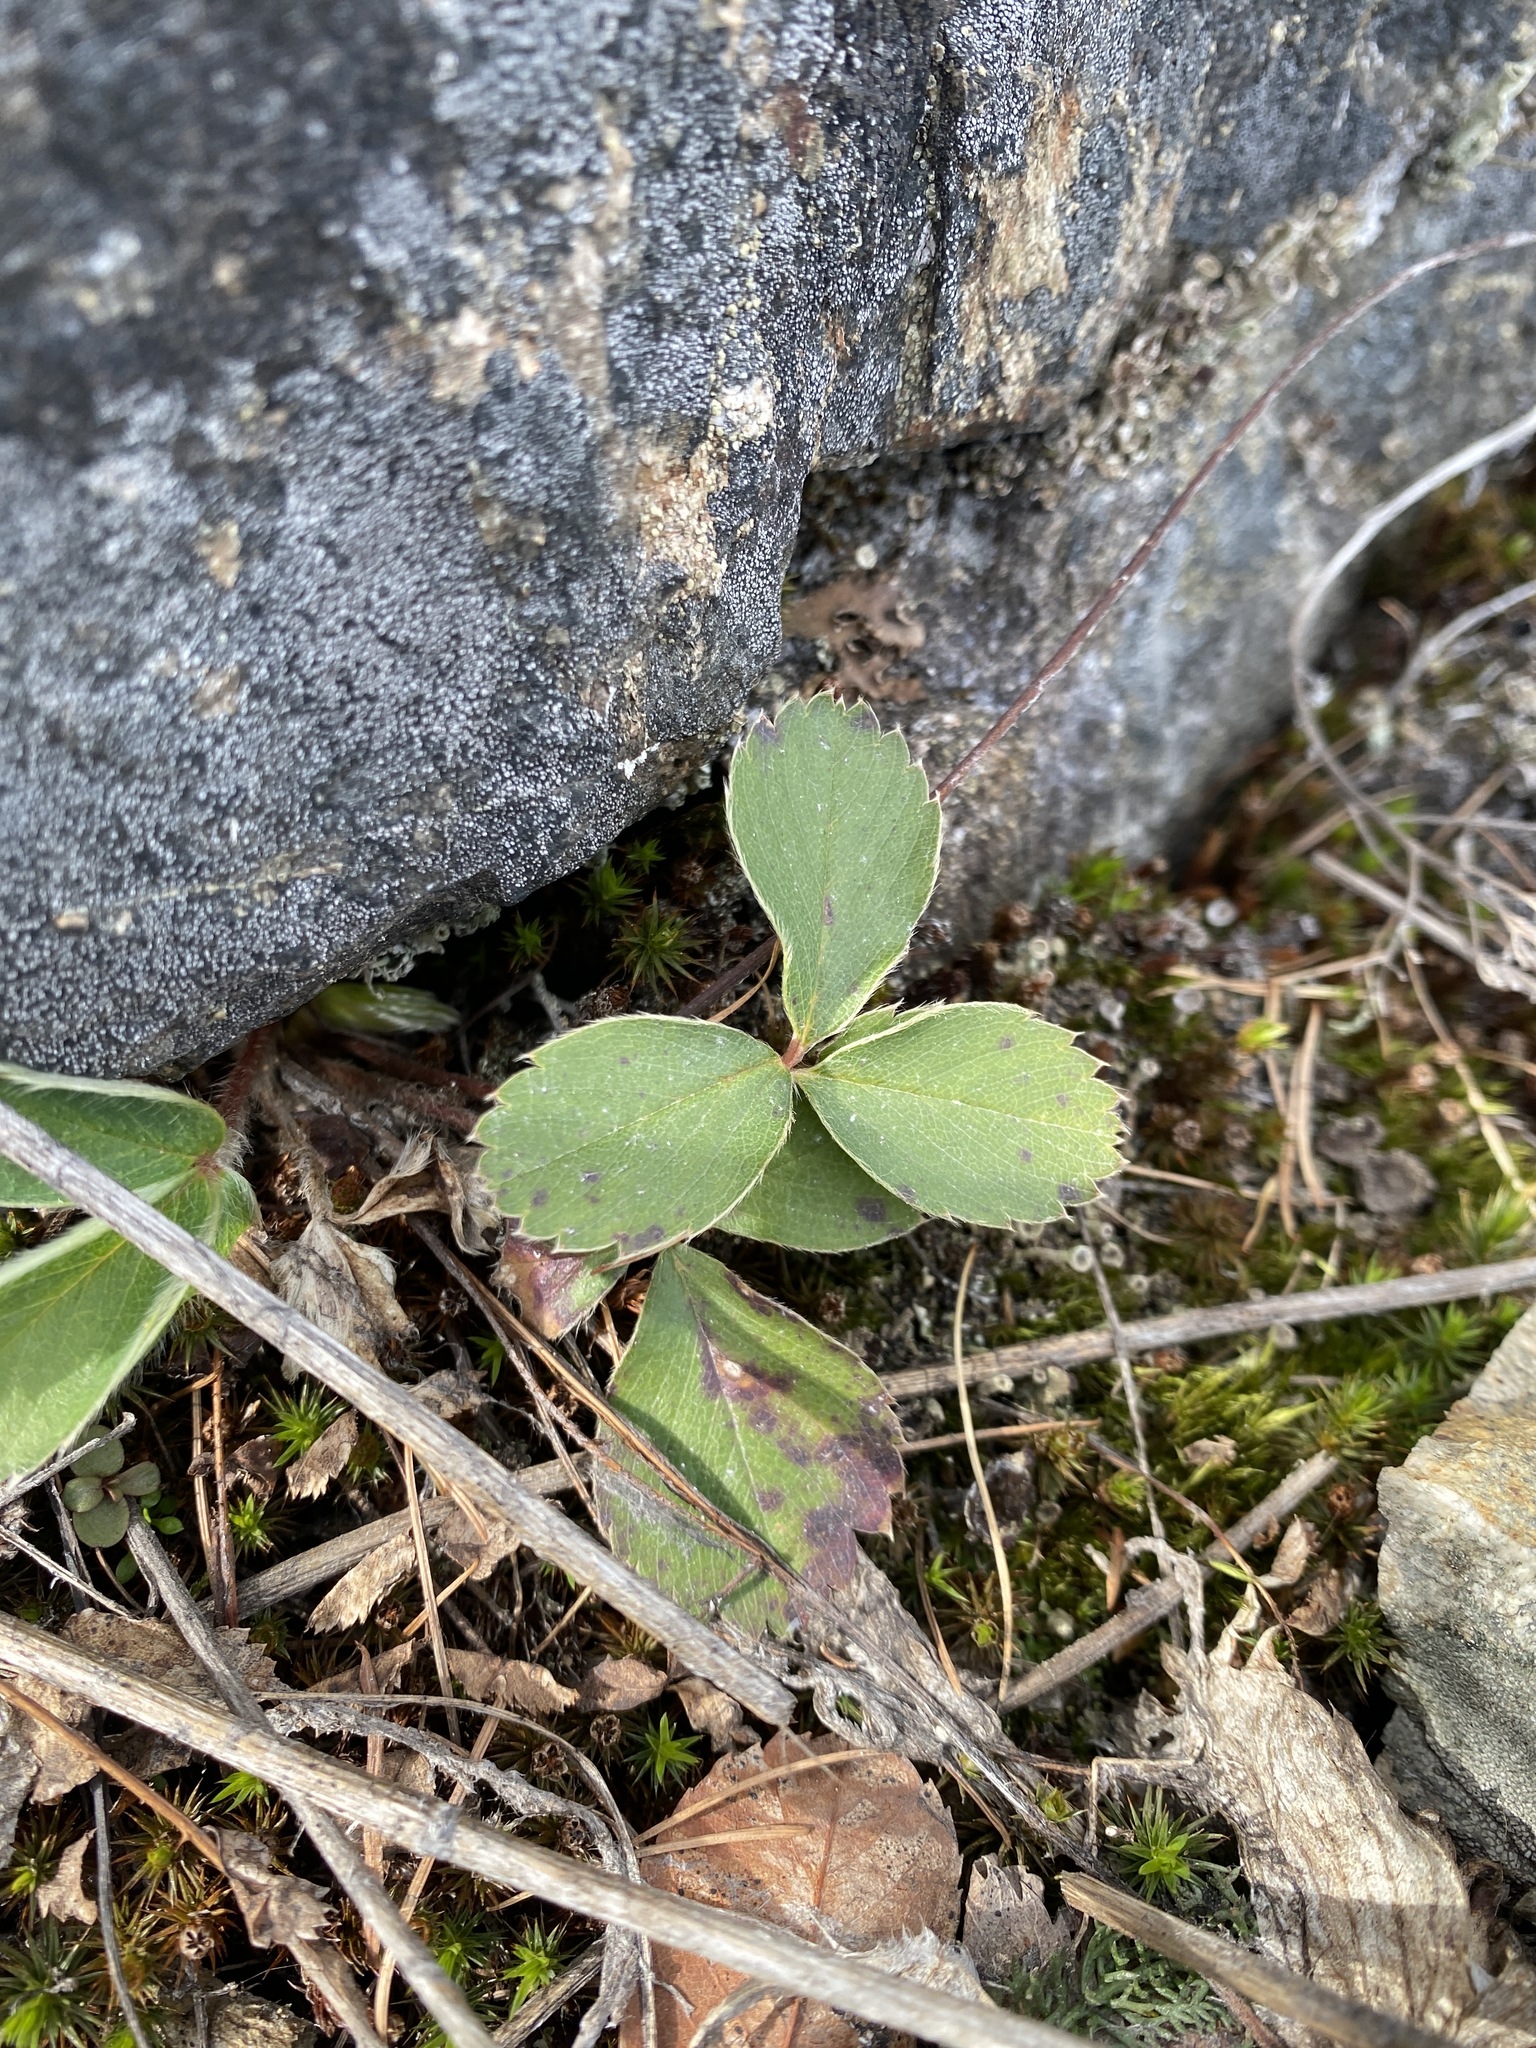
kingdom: Plantae
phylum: Tracheophyta
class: Magnoliopsida
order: Rosales
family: Rosaceae
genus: Fragaria
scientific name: Fragaria virginiana
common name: Thickleaved wild strawberry
